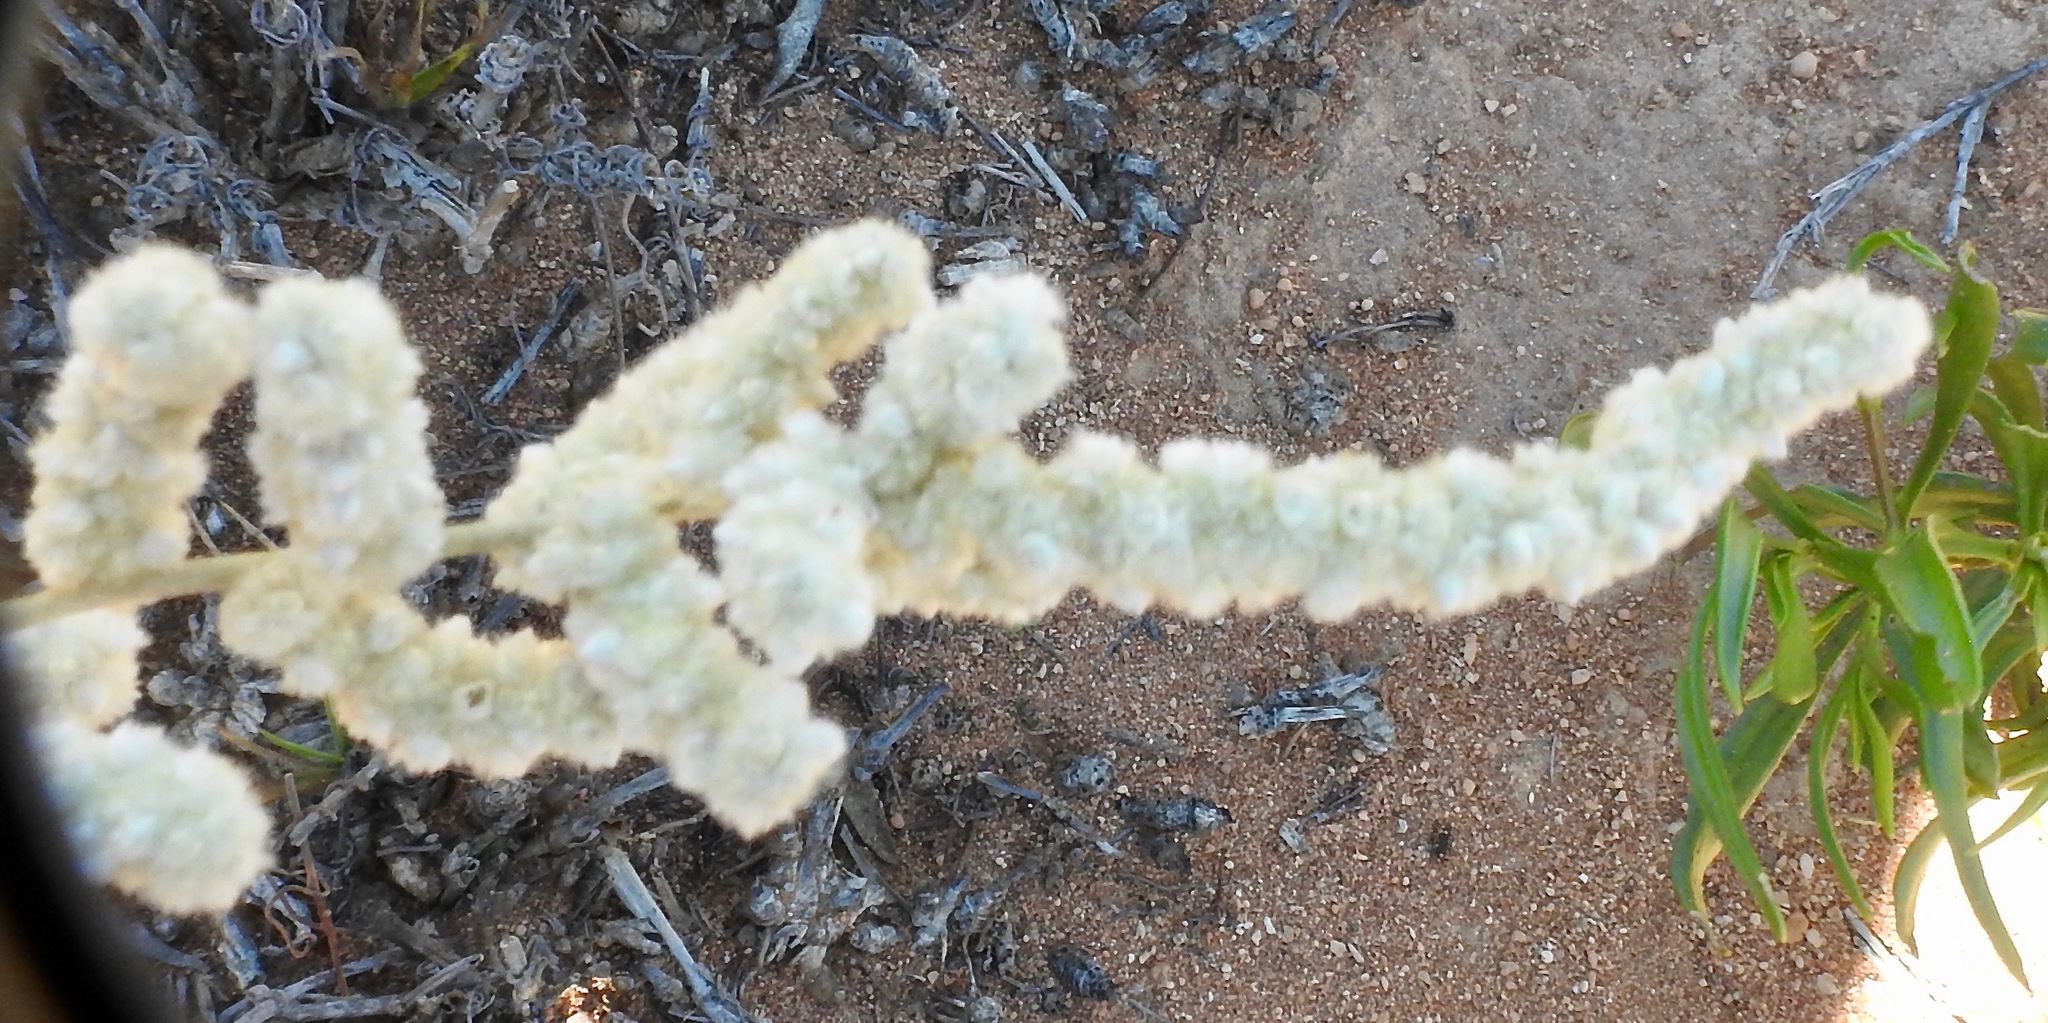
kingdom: Plantae
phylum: Tracheophyta
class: Magnoliopsida
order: Caryophyllales
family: Amaranthaceae
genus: Aerva
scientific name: Aerva javanica
